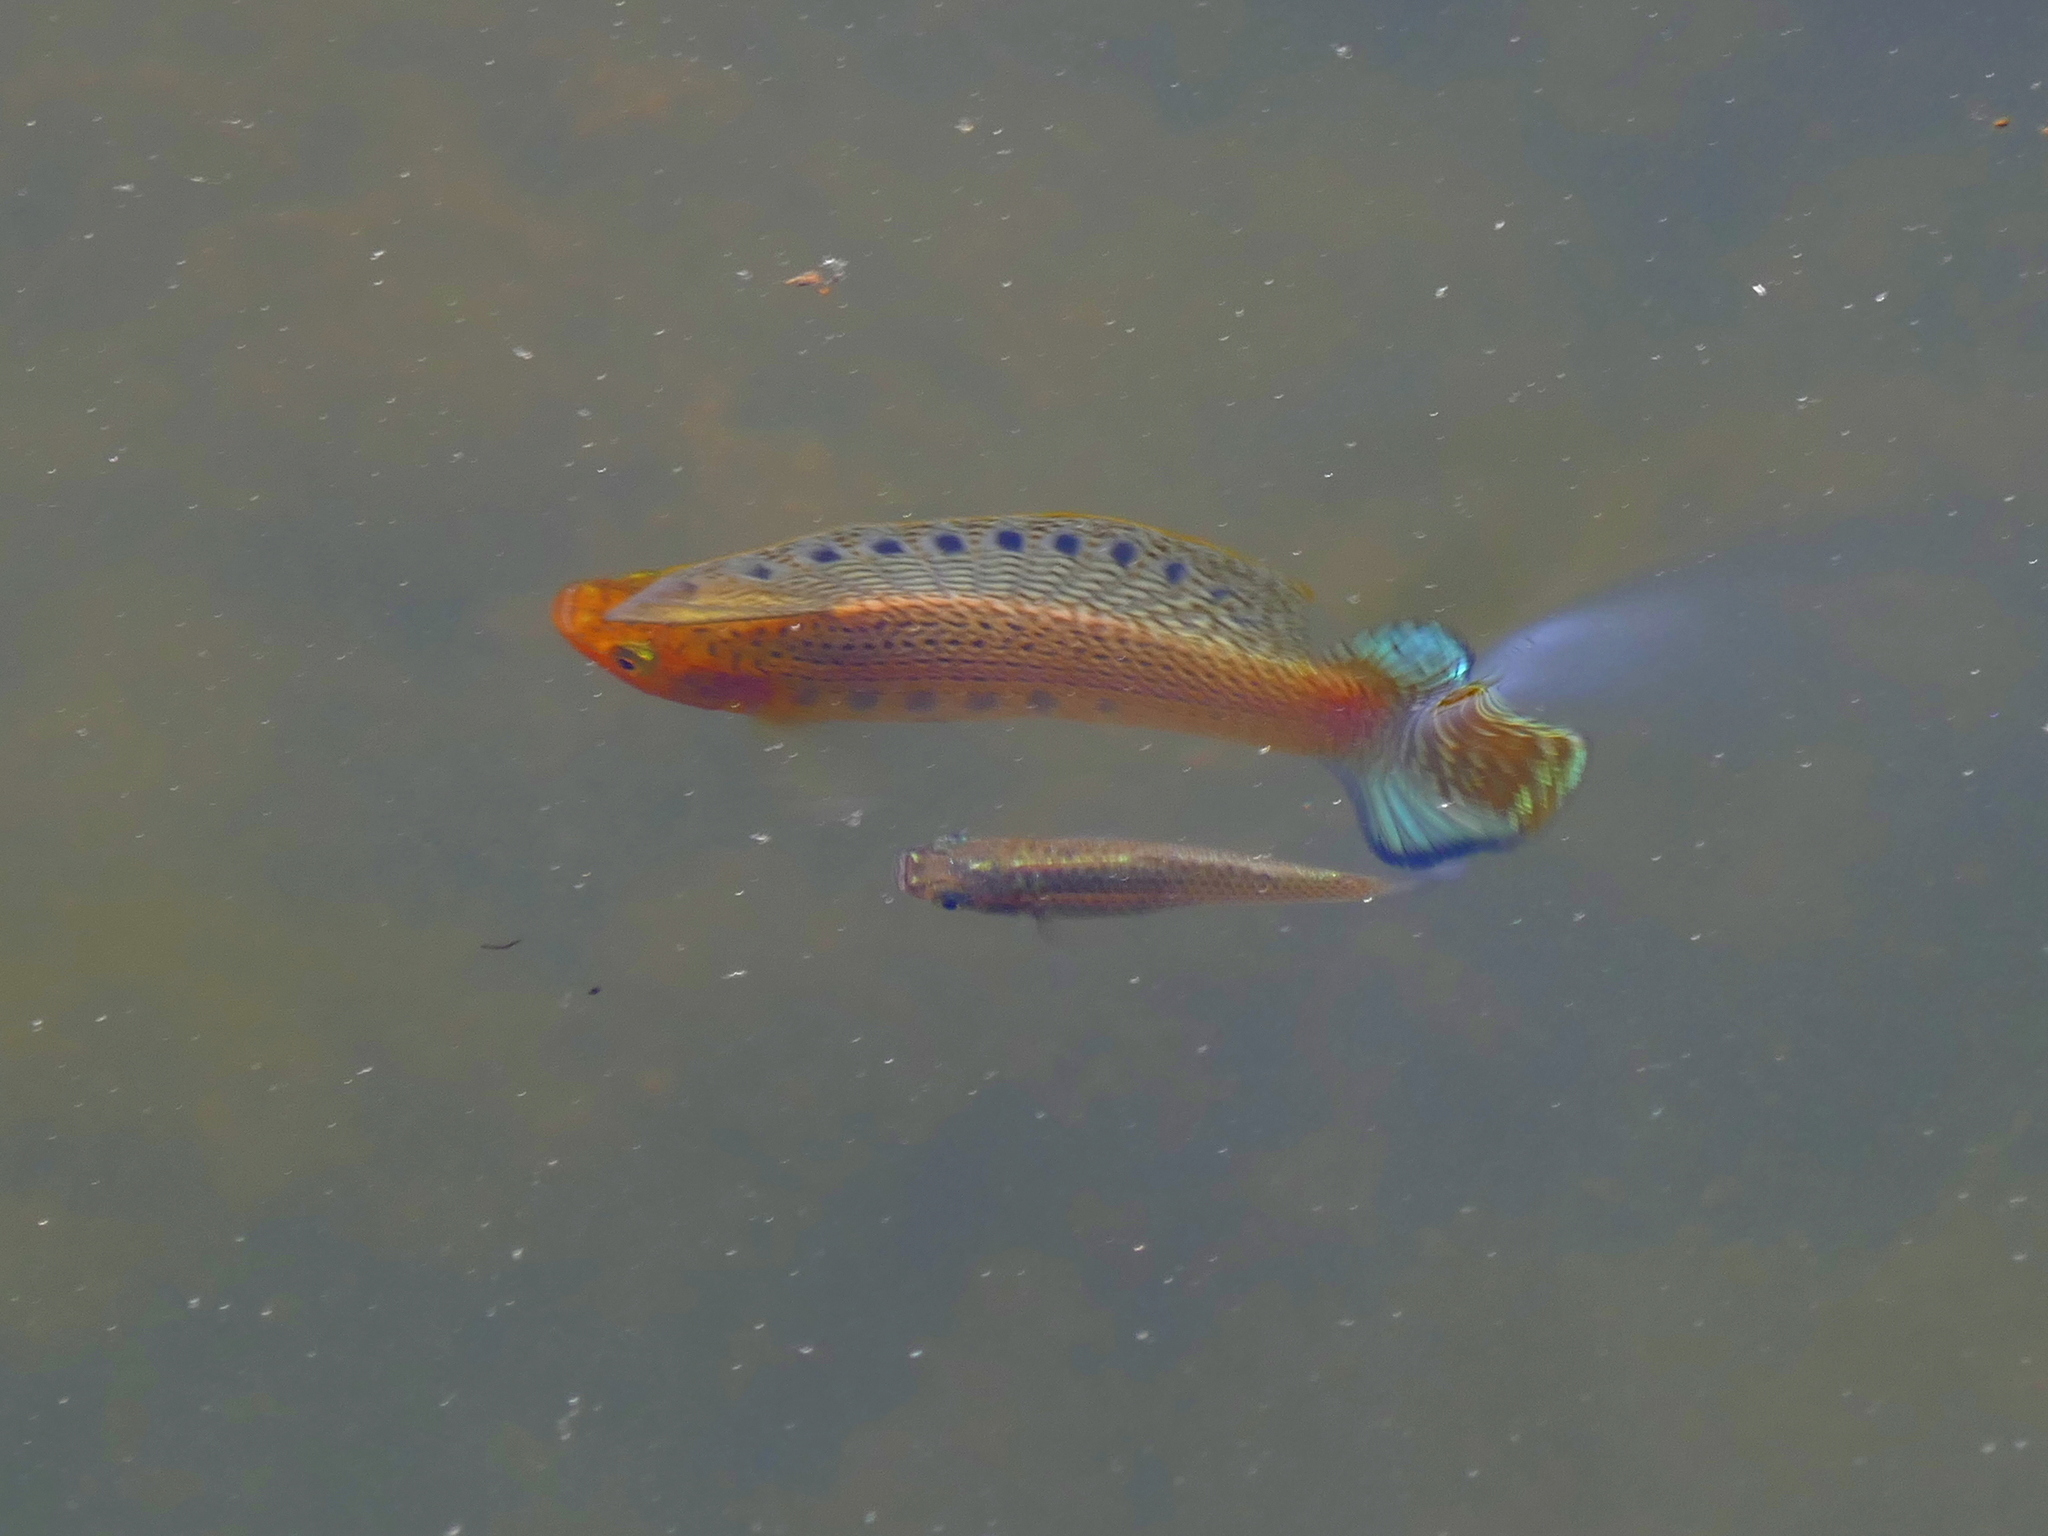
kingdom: Animalia
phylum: Chordata
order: Cyprinodontiformes
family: Poeciliidae
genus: Poecilia
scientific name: Poecilia latipinna
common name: Sailfin molly
